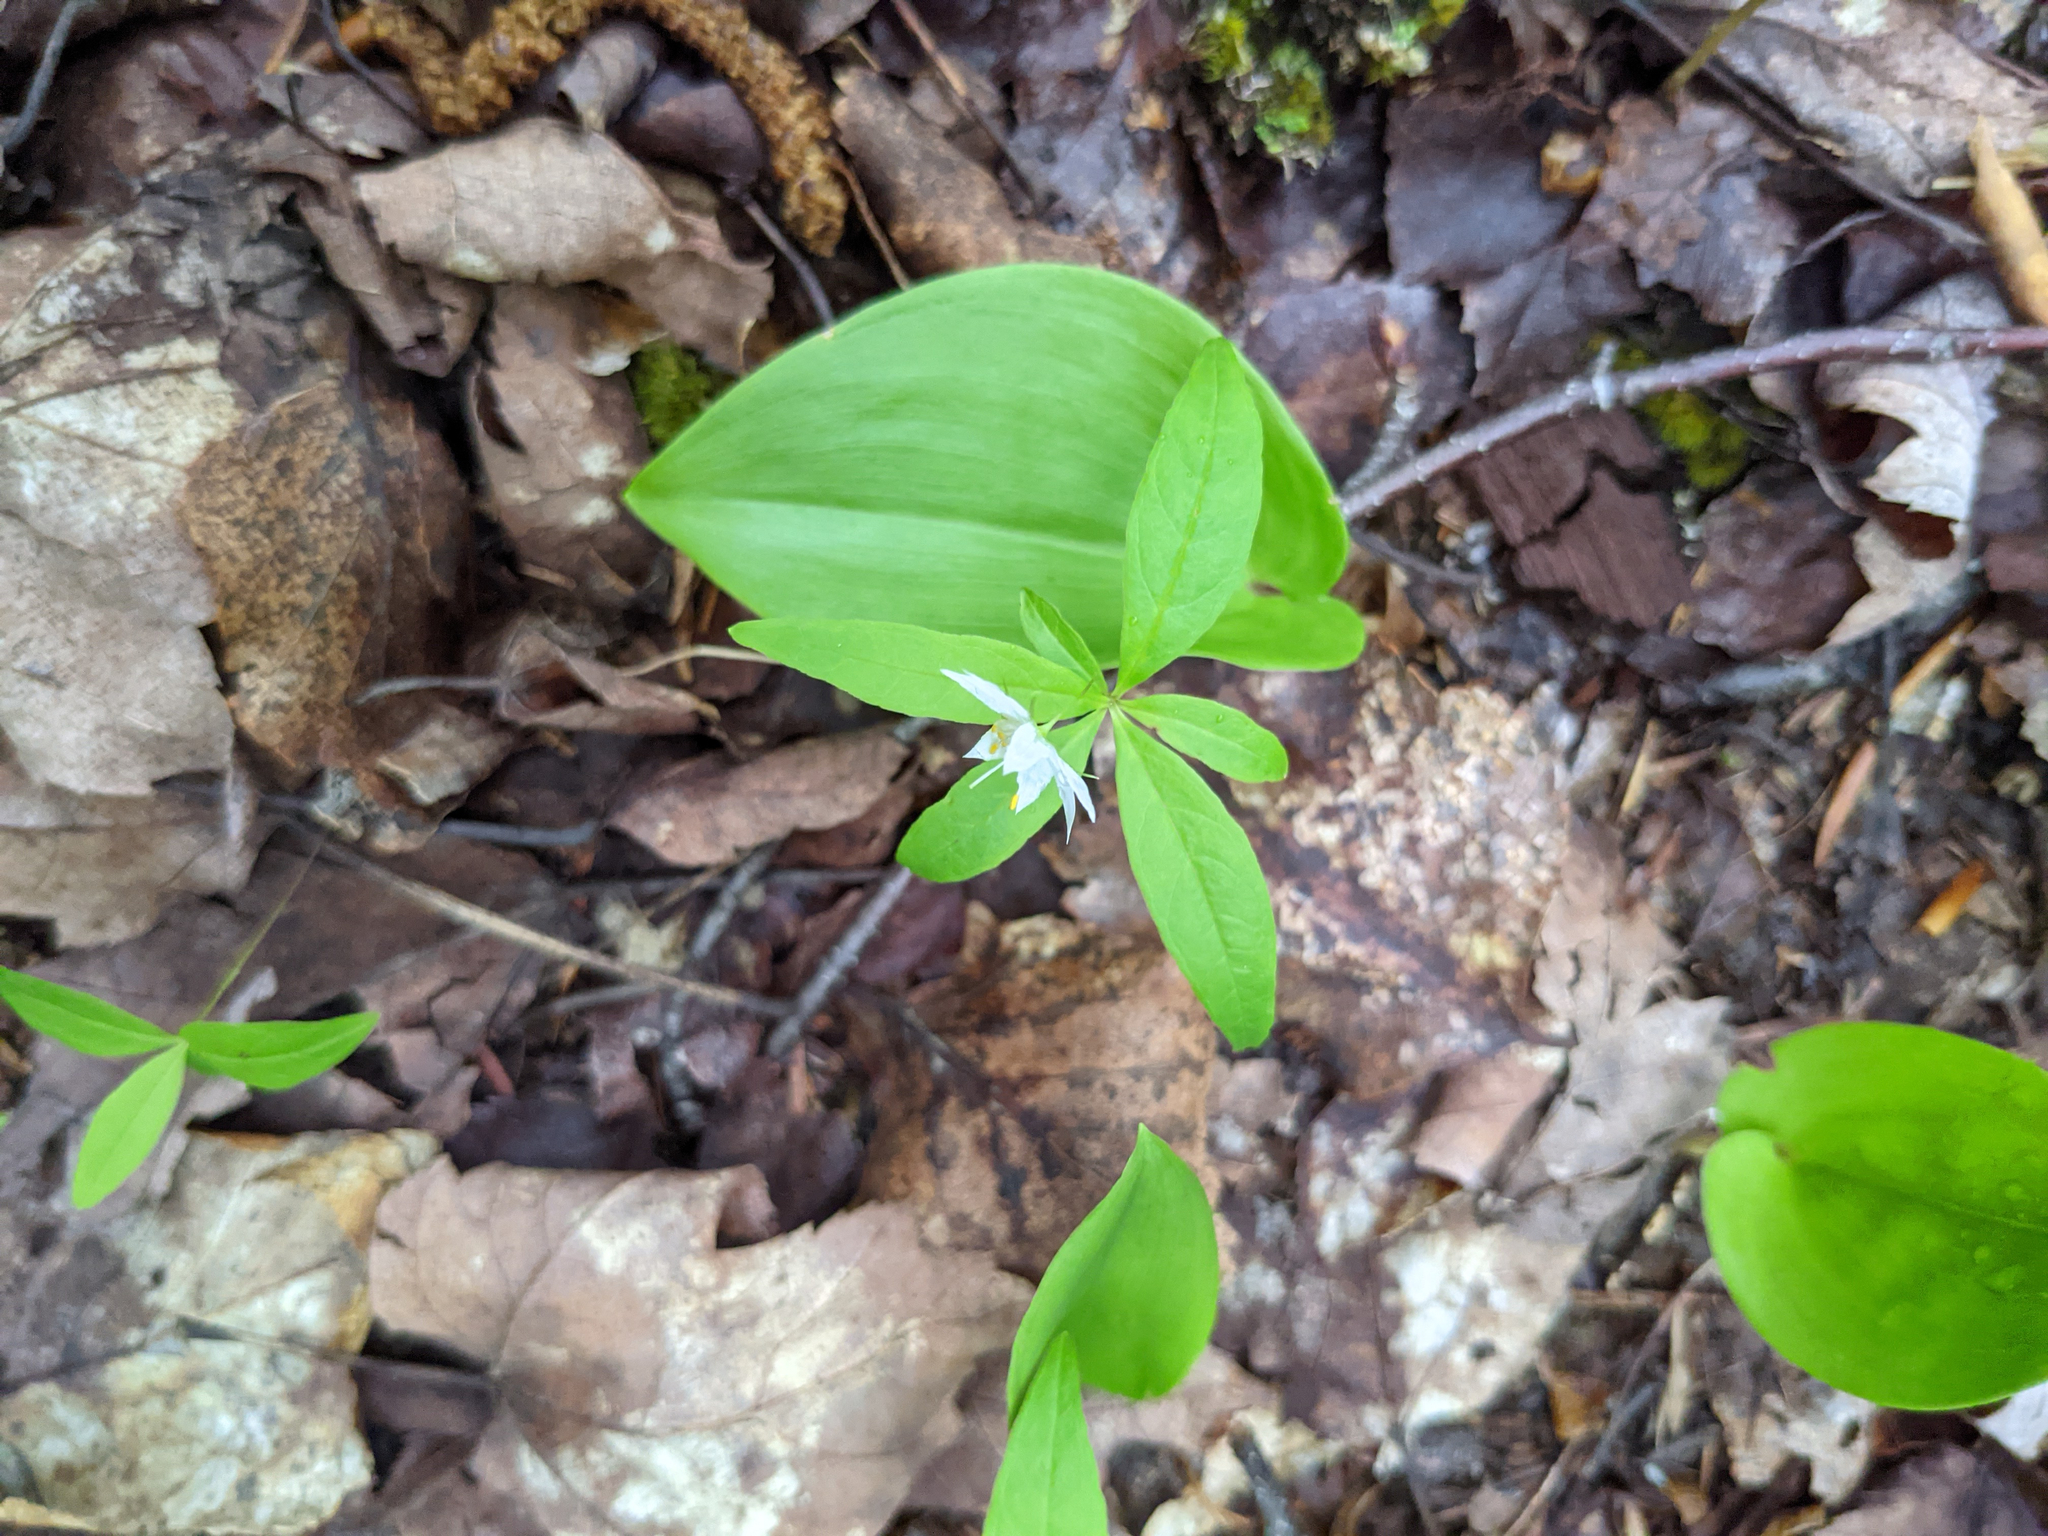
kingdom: Plantae
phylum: Tracheophyta
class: Magnoliopsida
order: Ericales
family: Primulaceae
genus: Lysimachia
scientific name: Lysimachia borealis
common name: American starflower
